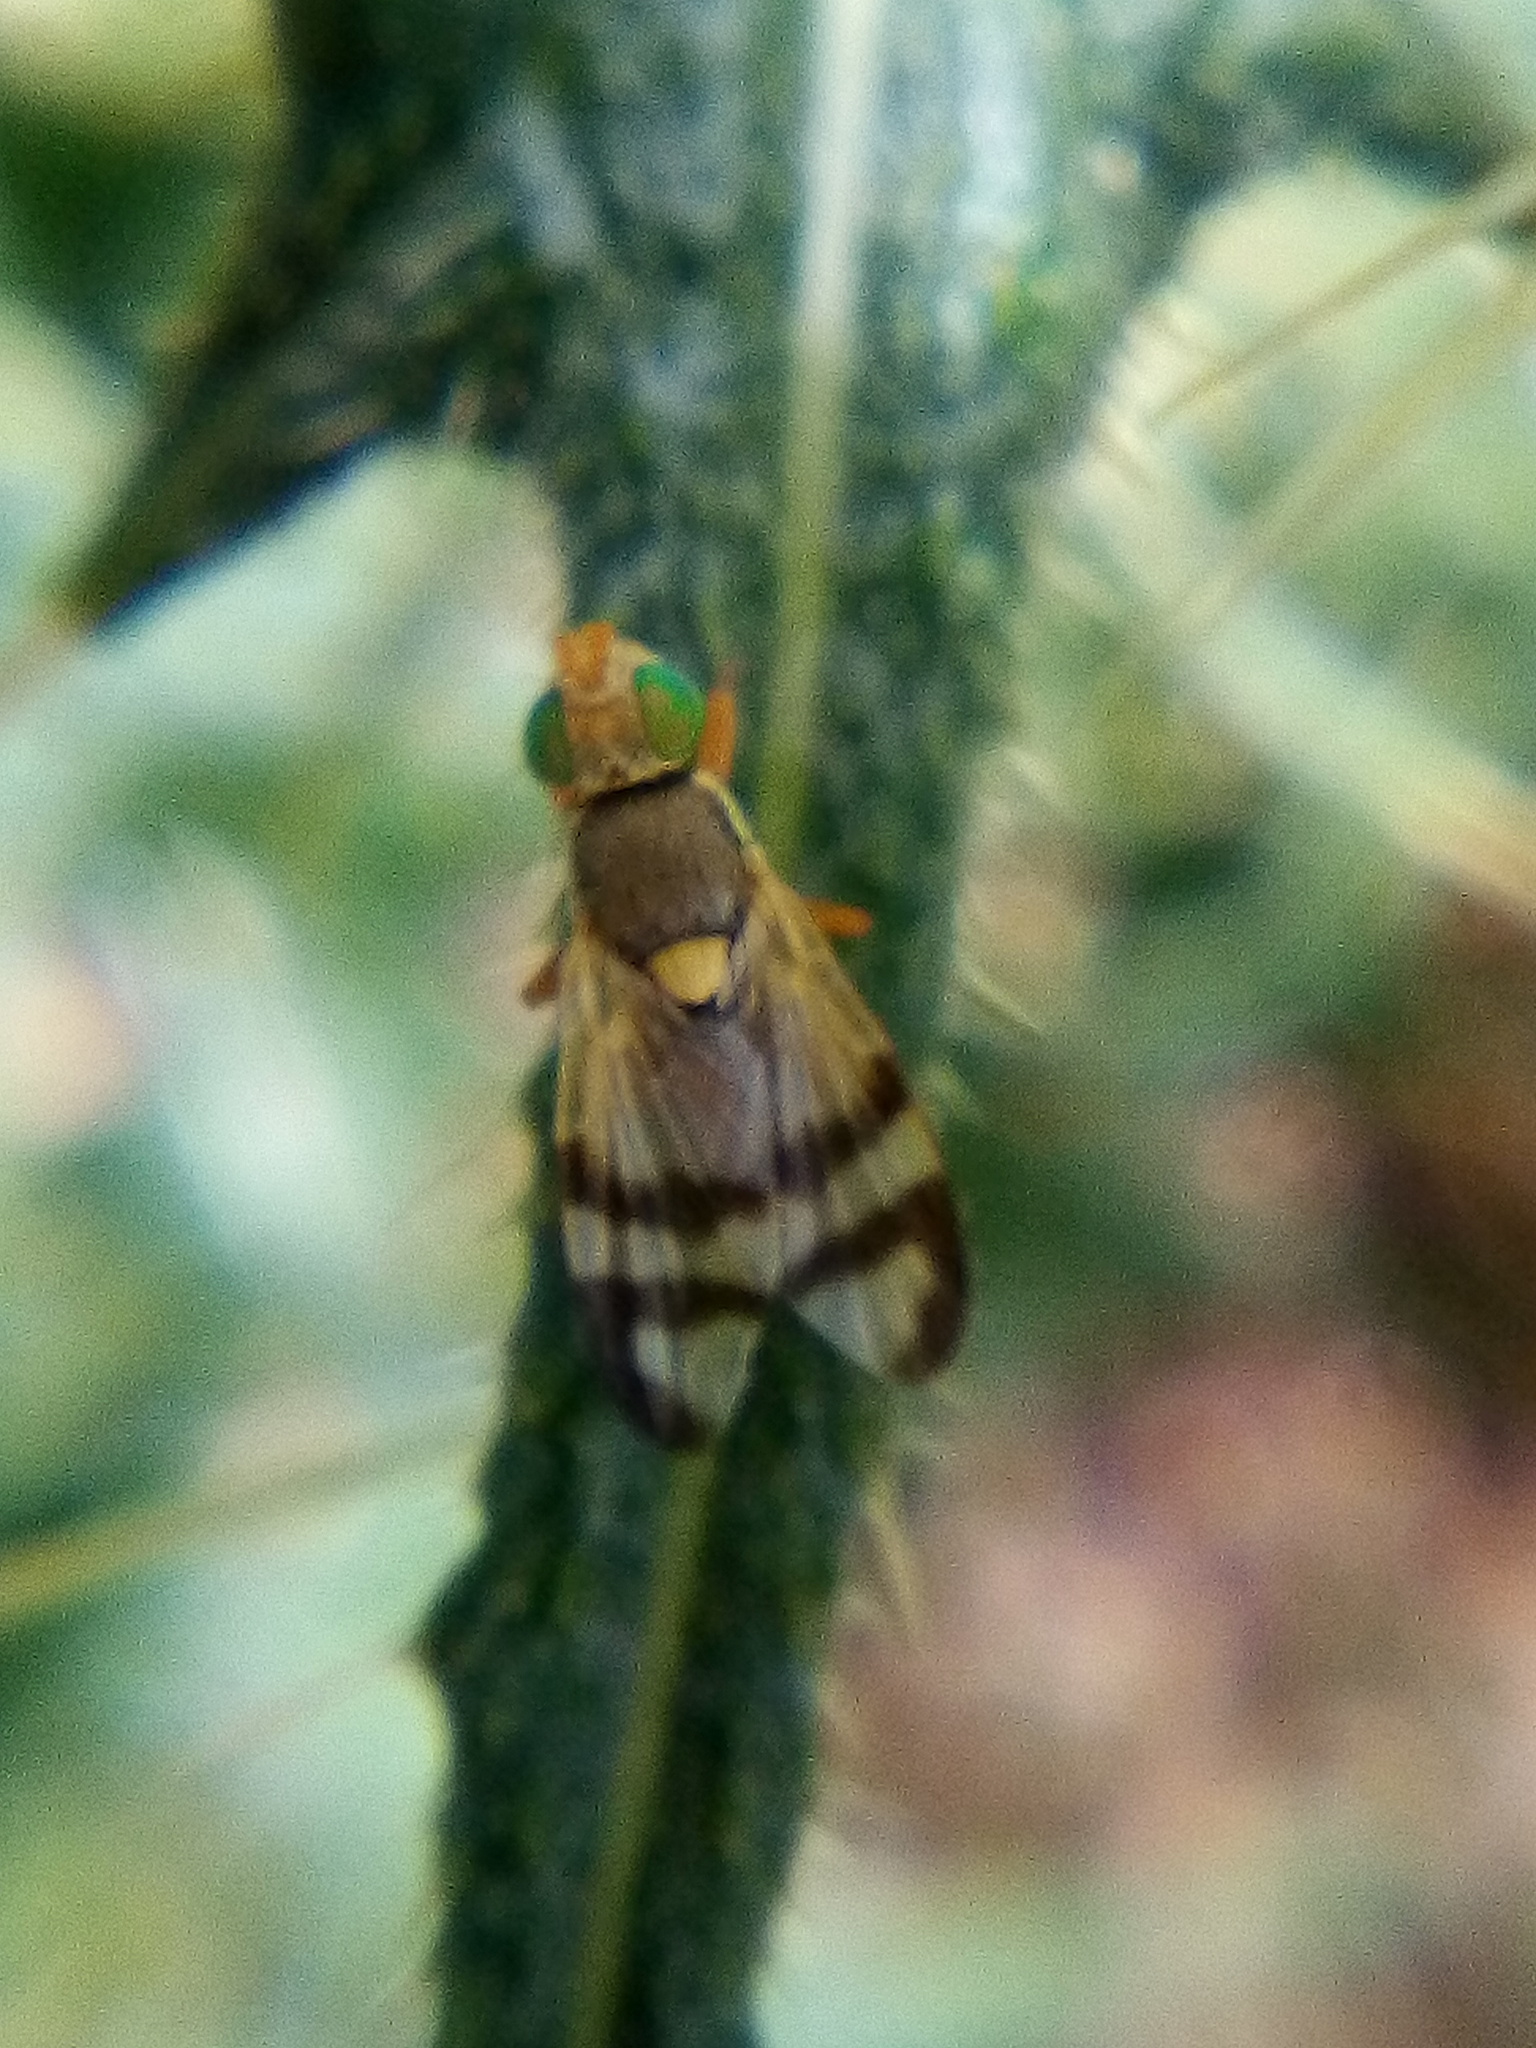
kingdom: Animalia
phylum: Arthropoda
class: Insecta
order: Diptera
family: Tephritidae
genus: Urophora
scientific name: Urophora stylata
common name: Fruit fly
